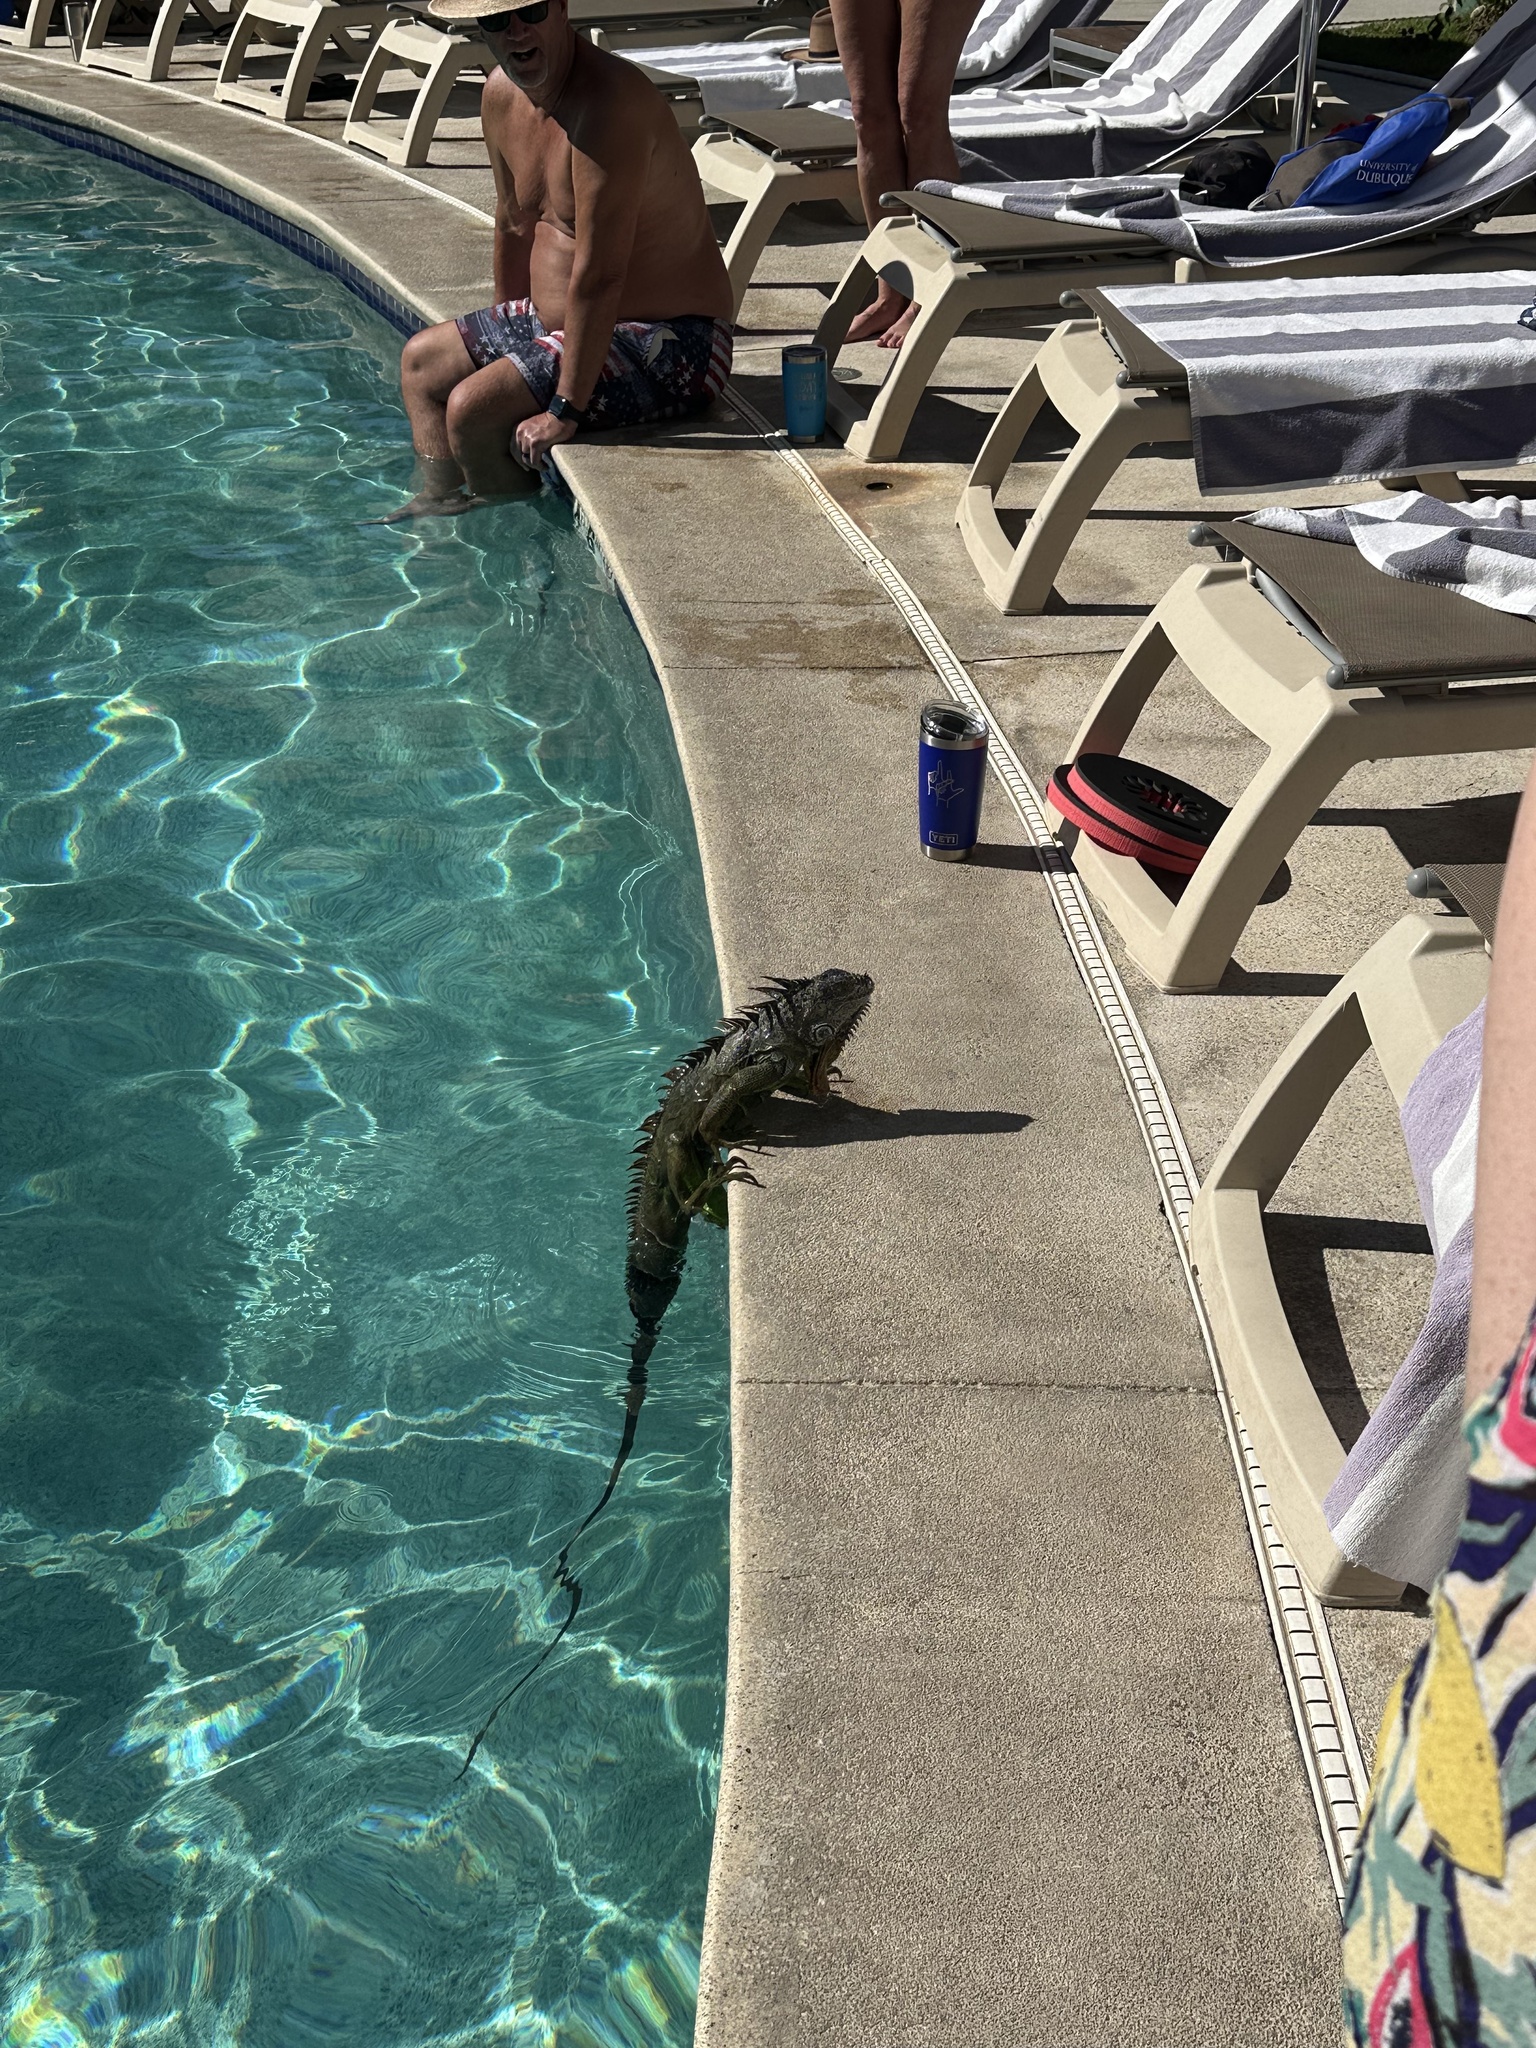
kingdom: Animalia
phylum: Chordata
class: Squamata
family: Iguanidae
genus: Iguana
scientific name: Iguana iguana
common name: Green iguana
